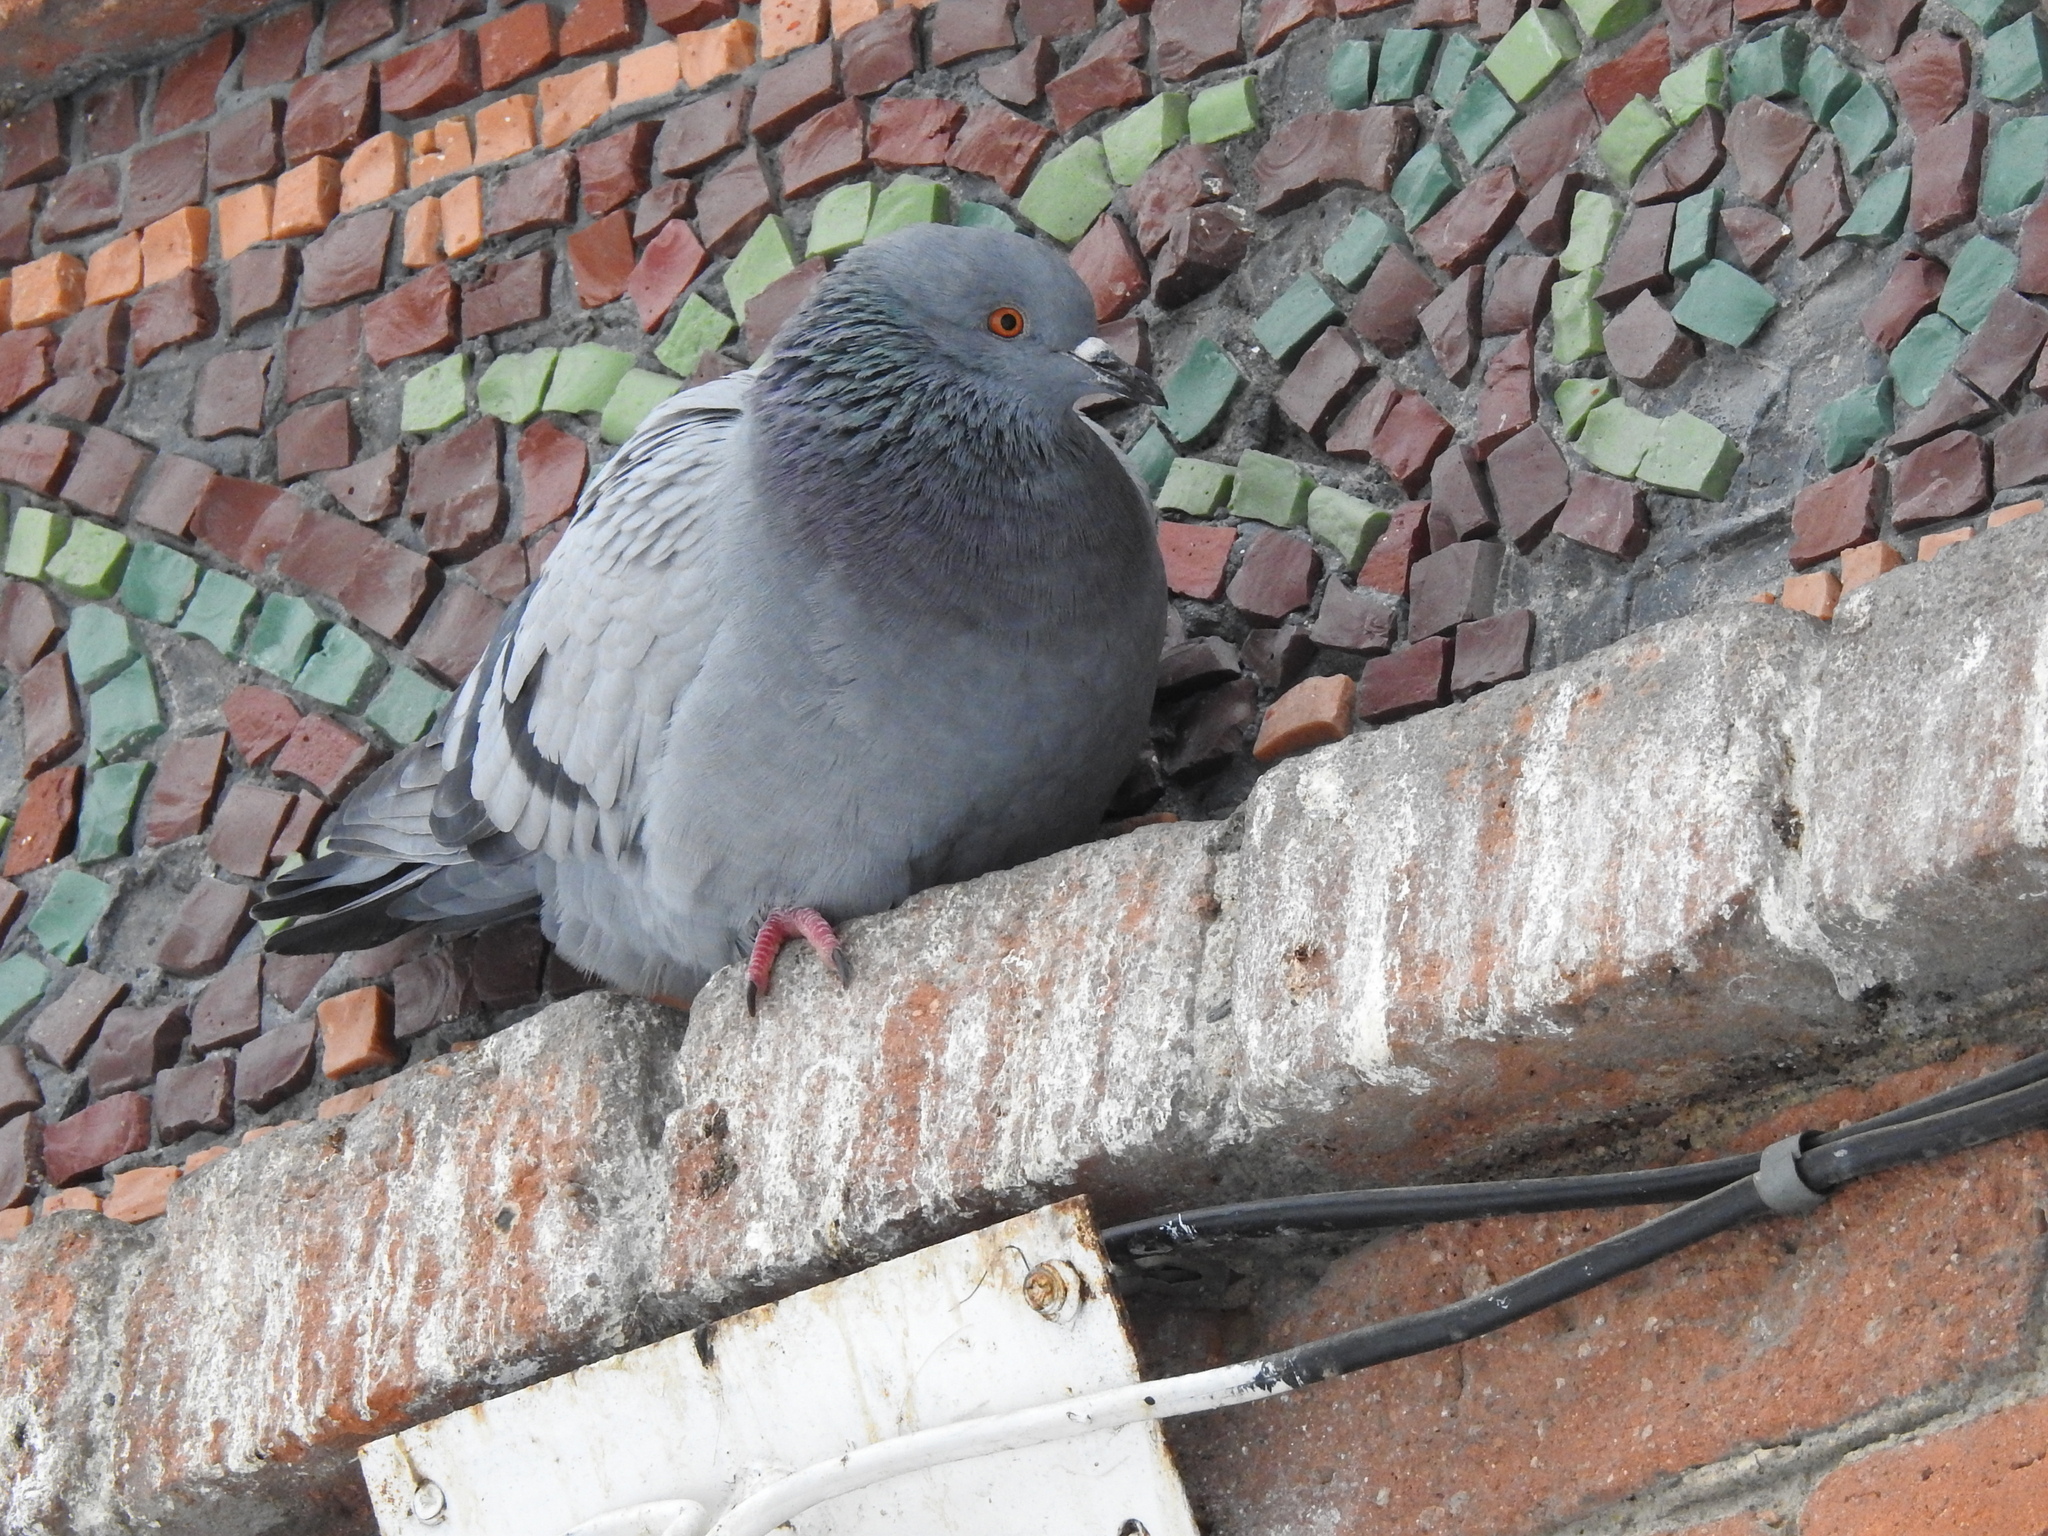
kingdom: Animalia
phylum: Chordata
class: Aves
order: Columbiformes
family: Columbidae
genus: Columba
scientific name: Columba livia
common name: Rock pigeon
